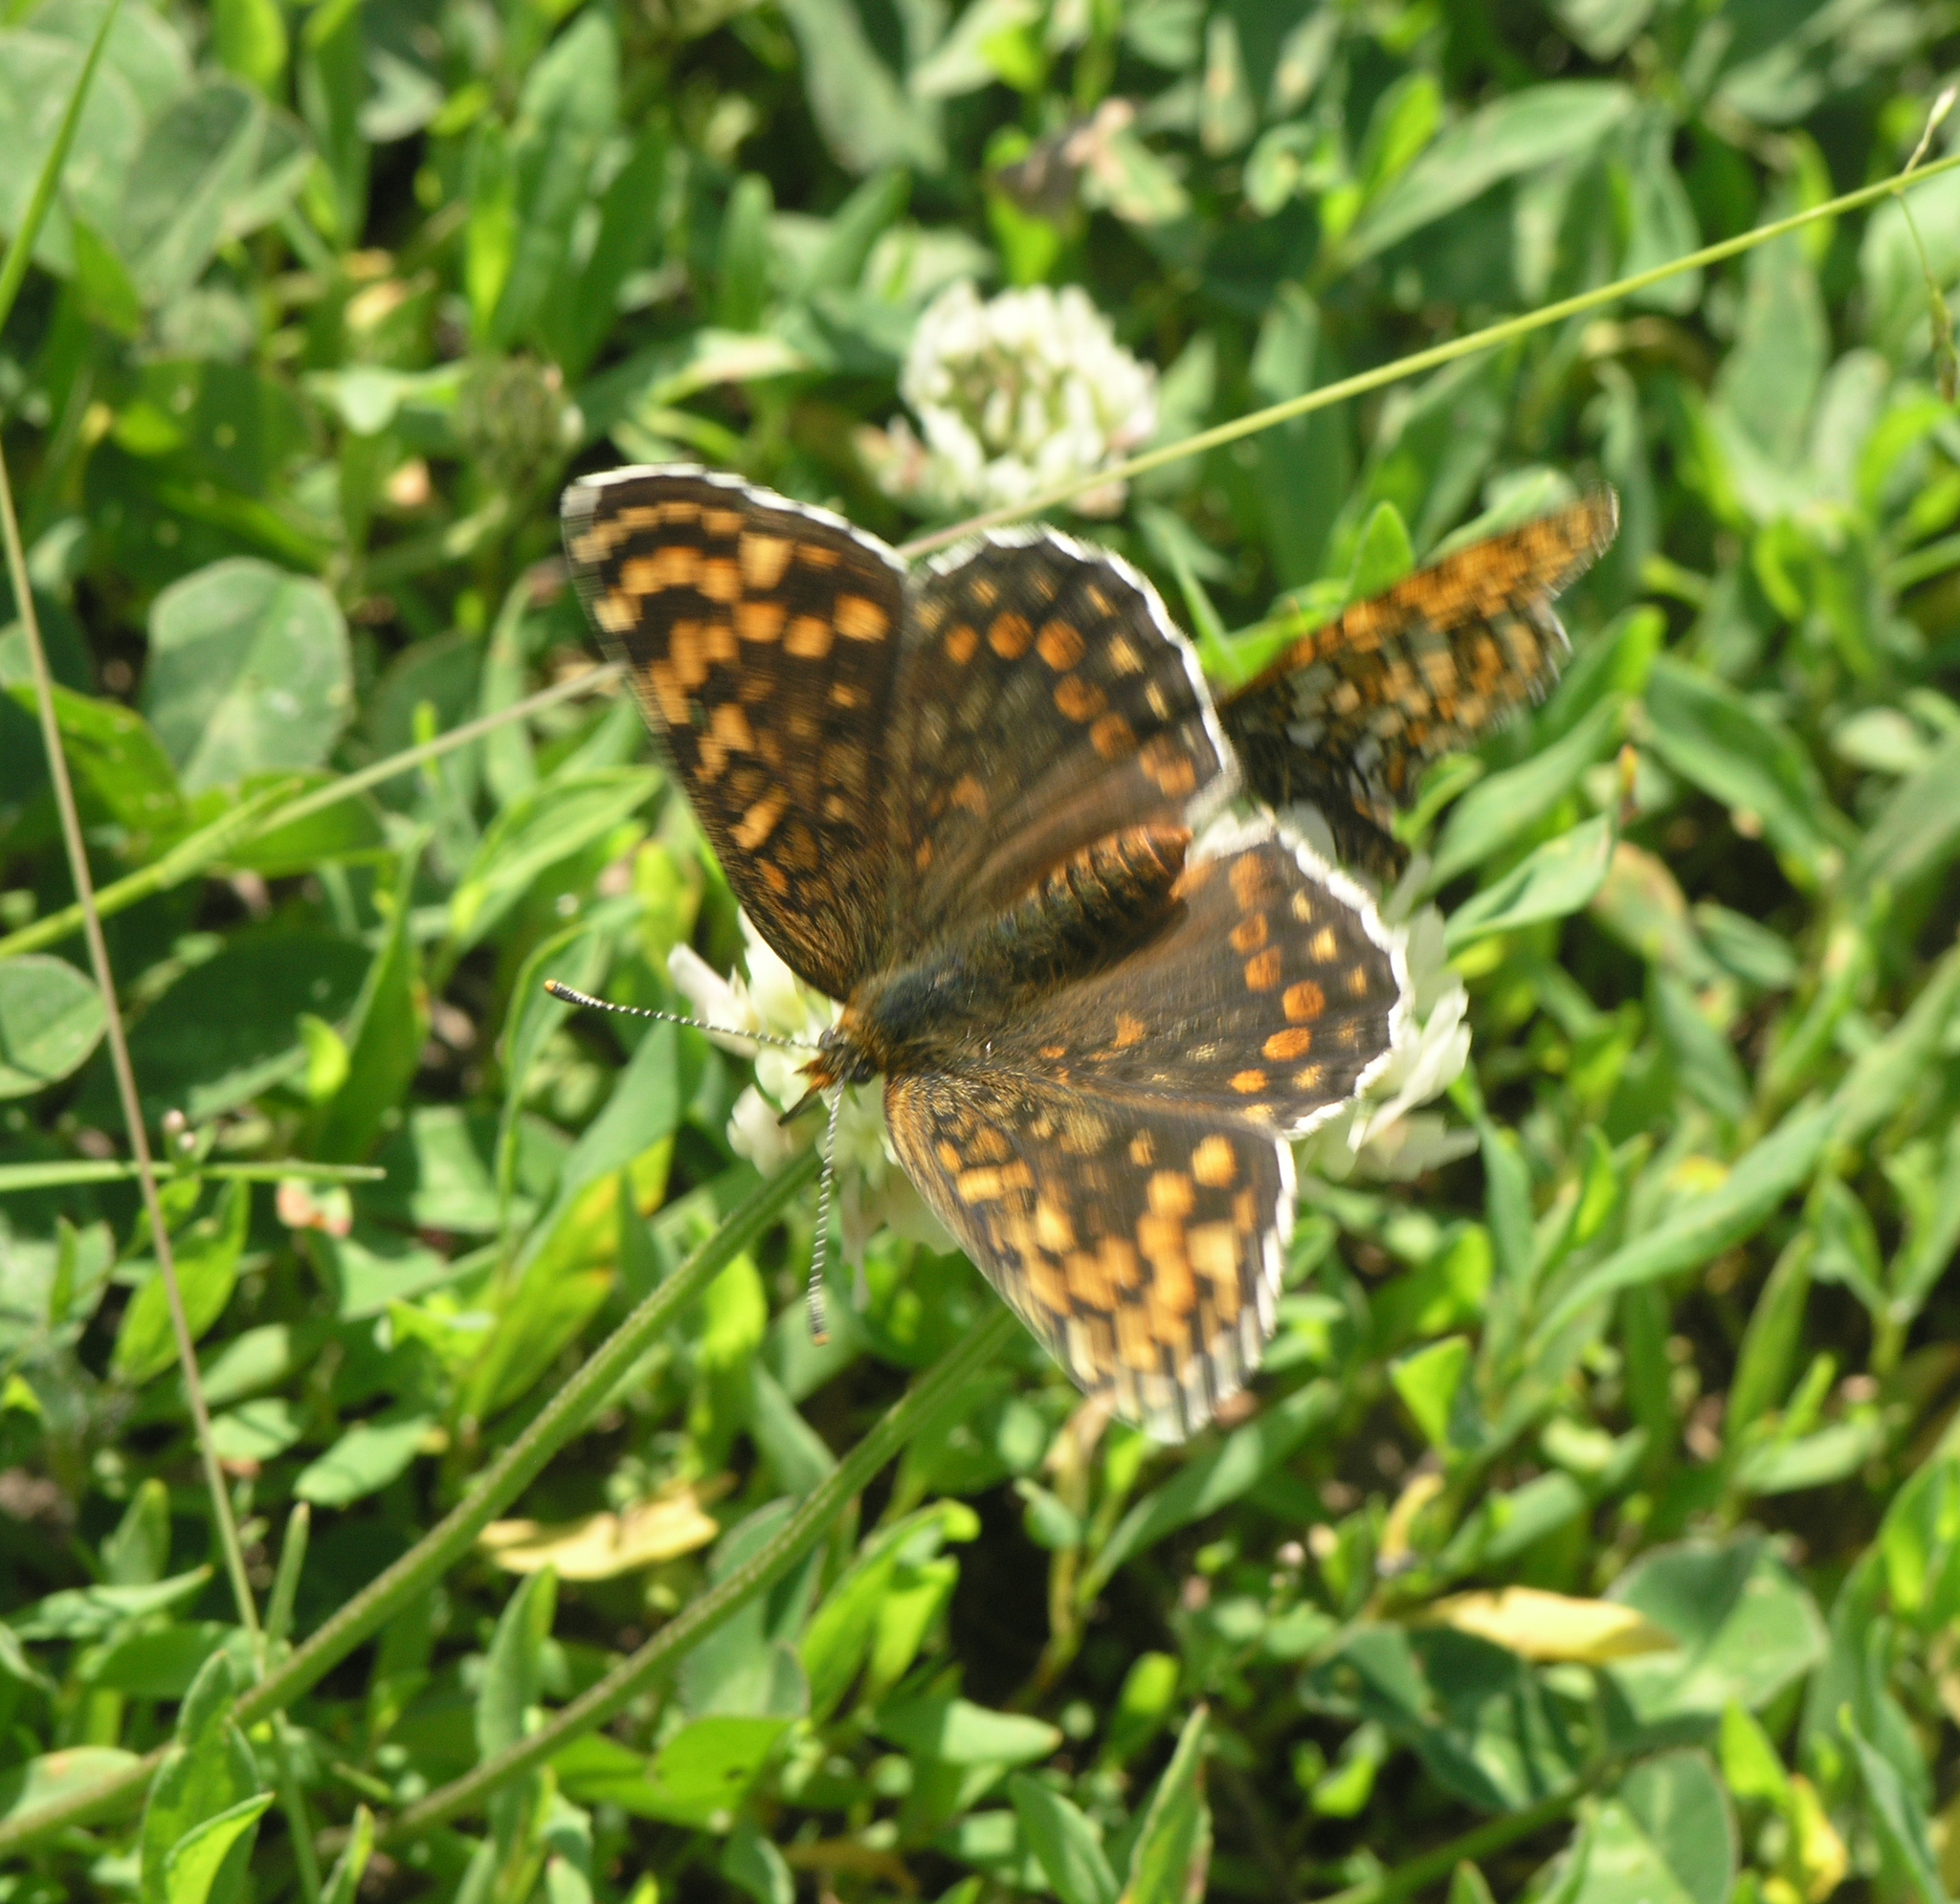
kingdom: Animalia
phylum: Arthropoda
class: Insecta
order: Lepidoptera
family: Nymphalidae
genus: Melitaea
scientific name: Melitaea phoebe
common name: Knapweed fritillary
